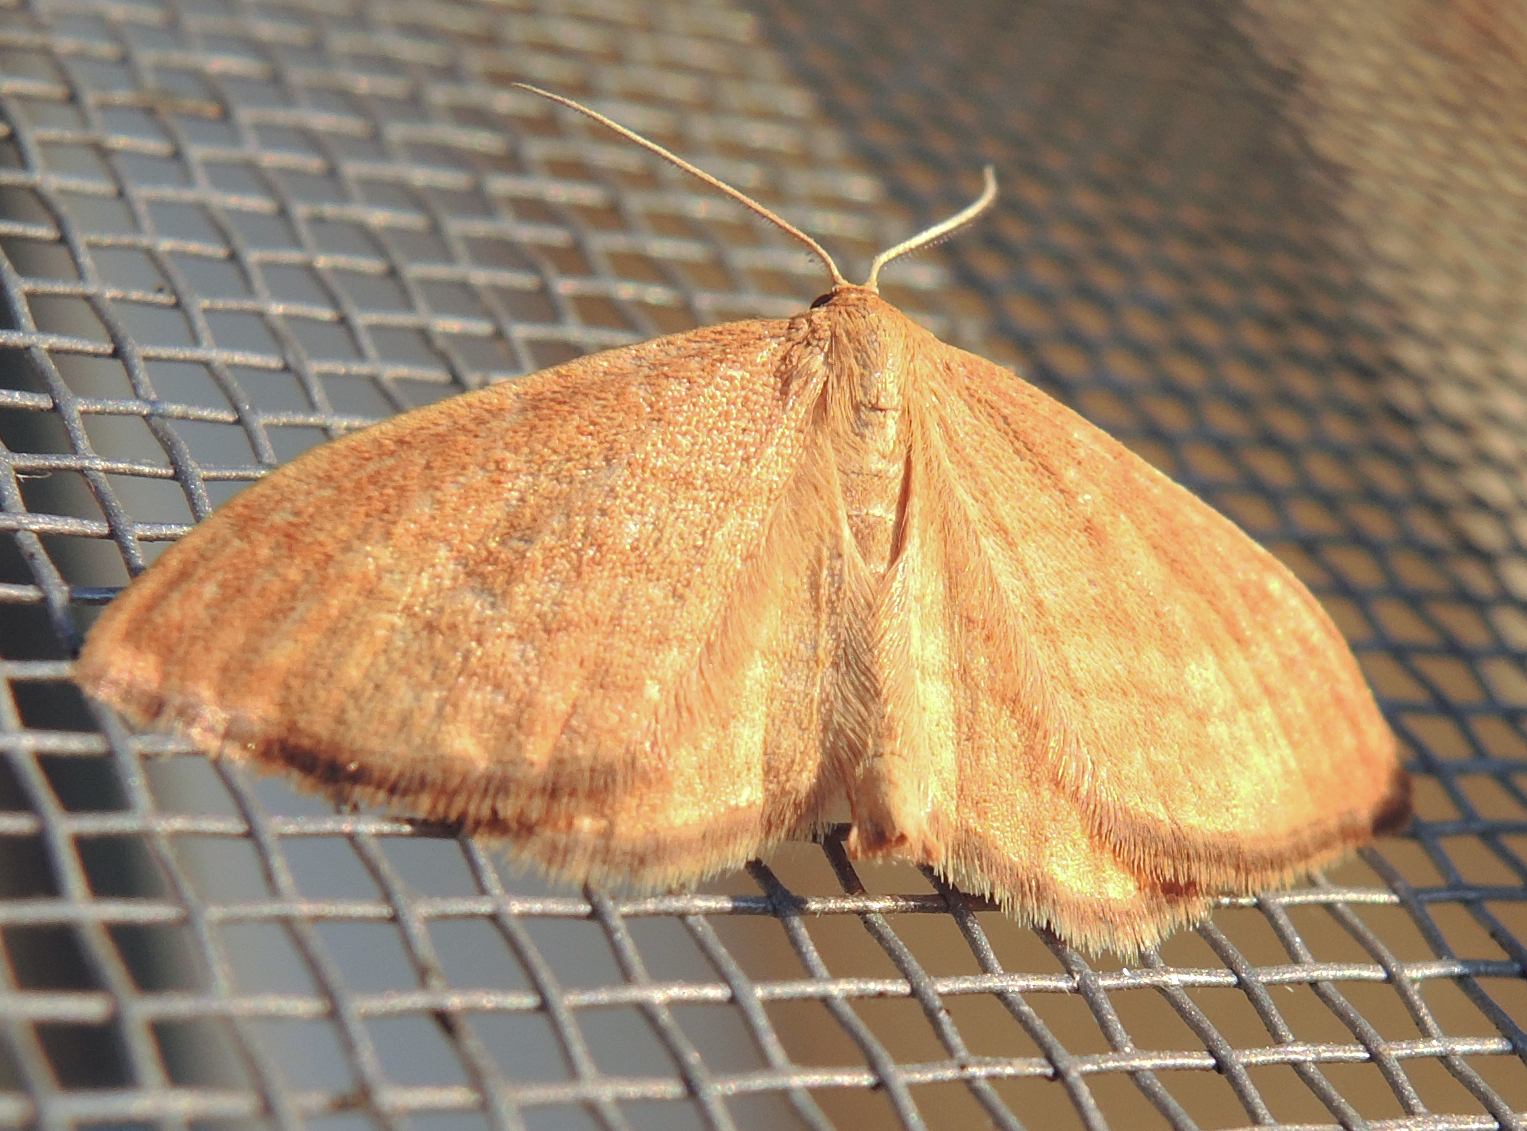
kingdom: Animalia
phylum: Arthropoda
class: Insecta
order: Lepidoptera
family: Geometridae
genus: Idaea
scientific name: Idaea serpentata
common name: Ochraceous wave
